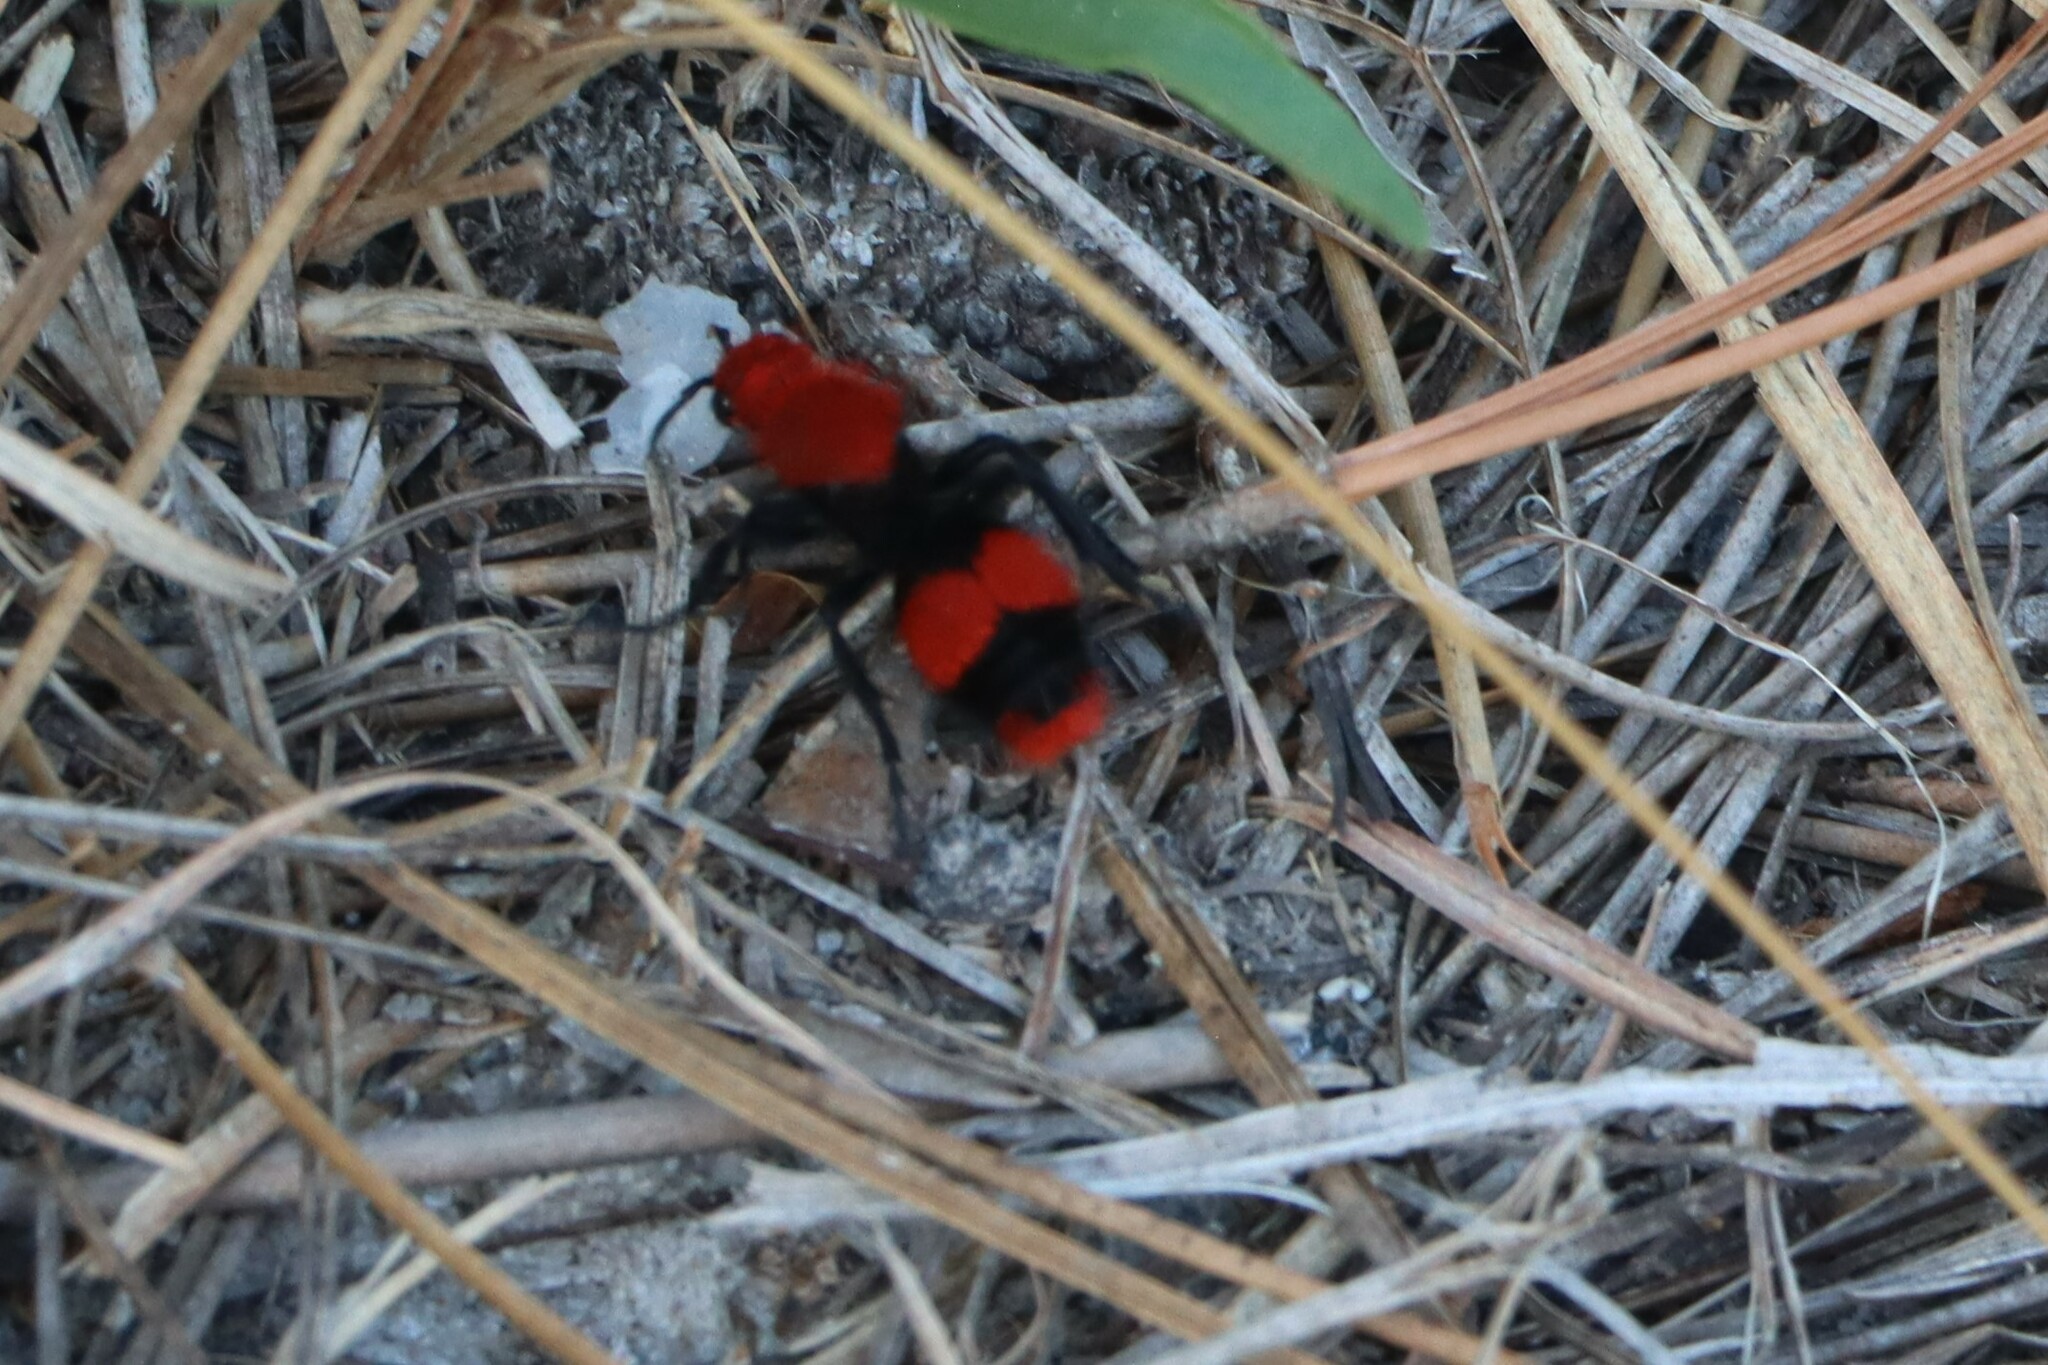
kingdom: Animalia
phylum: Arthropoda
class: Insecta
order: Hymenoptera
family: Mutillidae
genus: Dasymutilla
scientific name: Dasymutilla occidentalis
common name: Common eastern velvet ant
